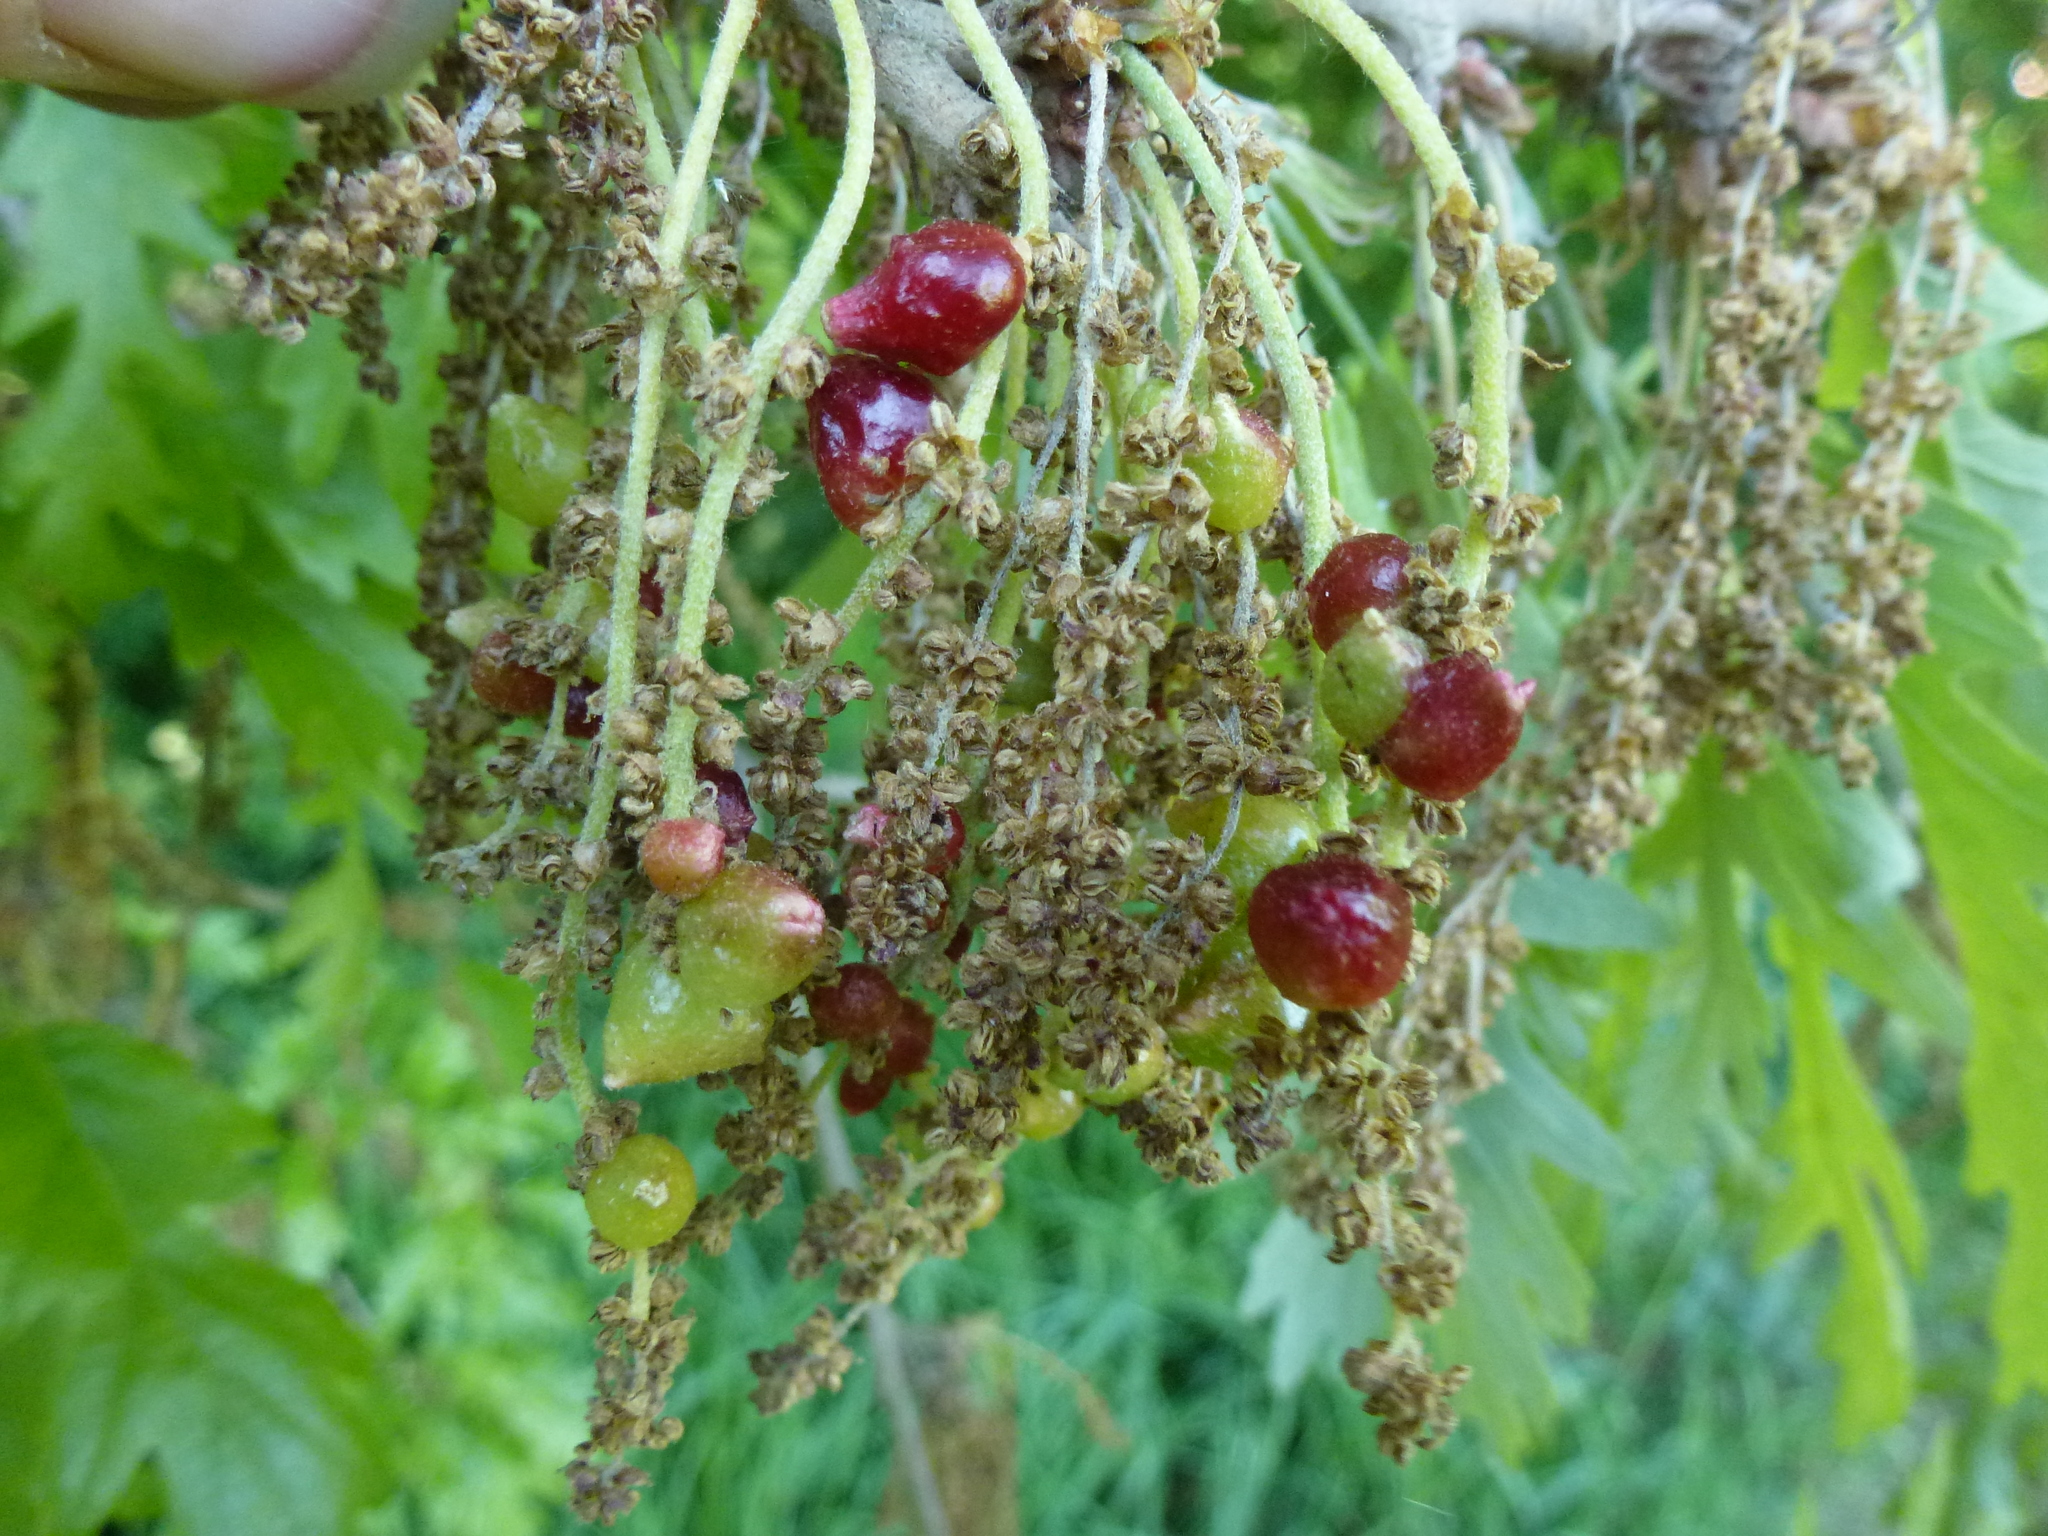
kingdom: Animalia
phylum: Arthropoda
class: Insecta
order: Hymenoptera
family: Cynipidae
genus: Andricus
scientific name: Andricus grossulariae
